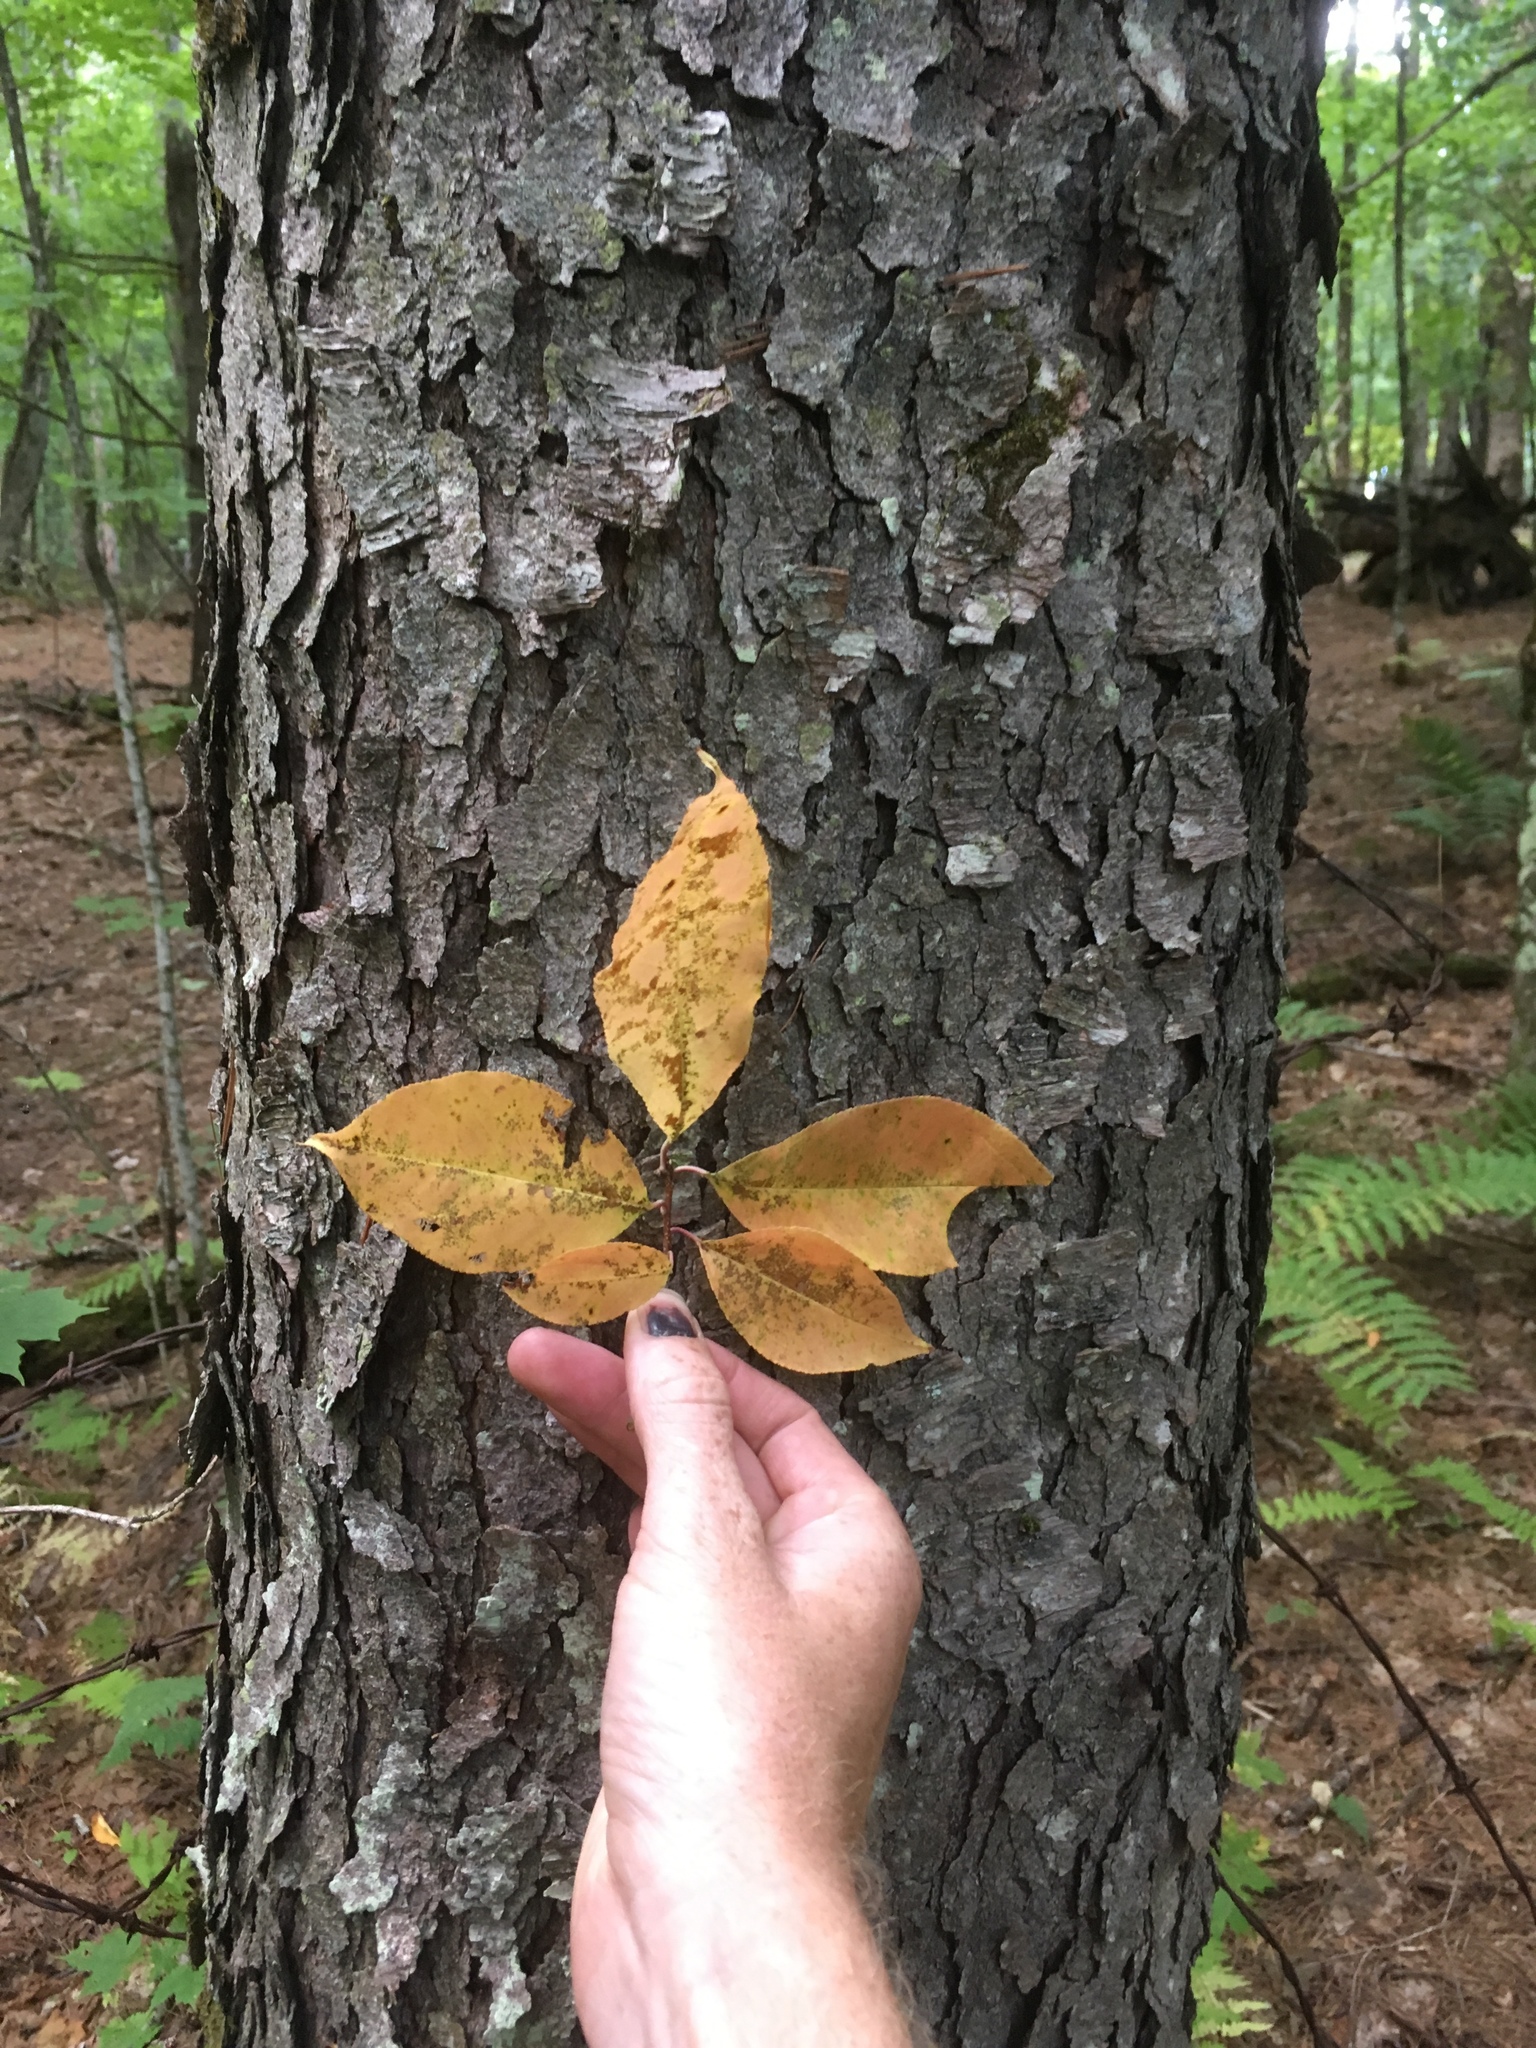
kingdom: Plantae
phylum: Tracheophyta
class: Magnoliopsida
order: Rosales
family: Rosaceae
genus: Prunus
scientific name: Prunus serotina
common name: Black cherry
